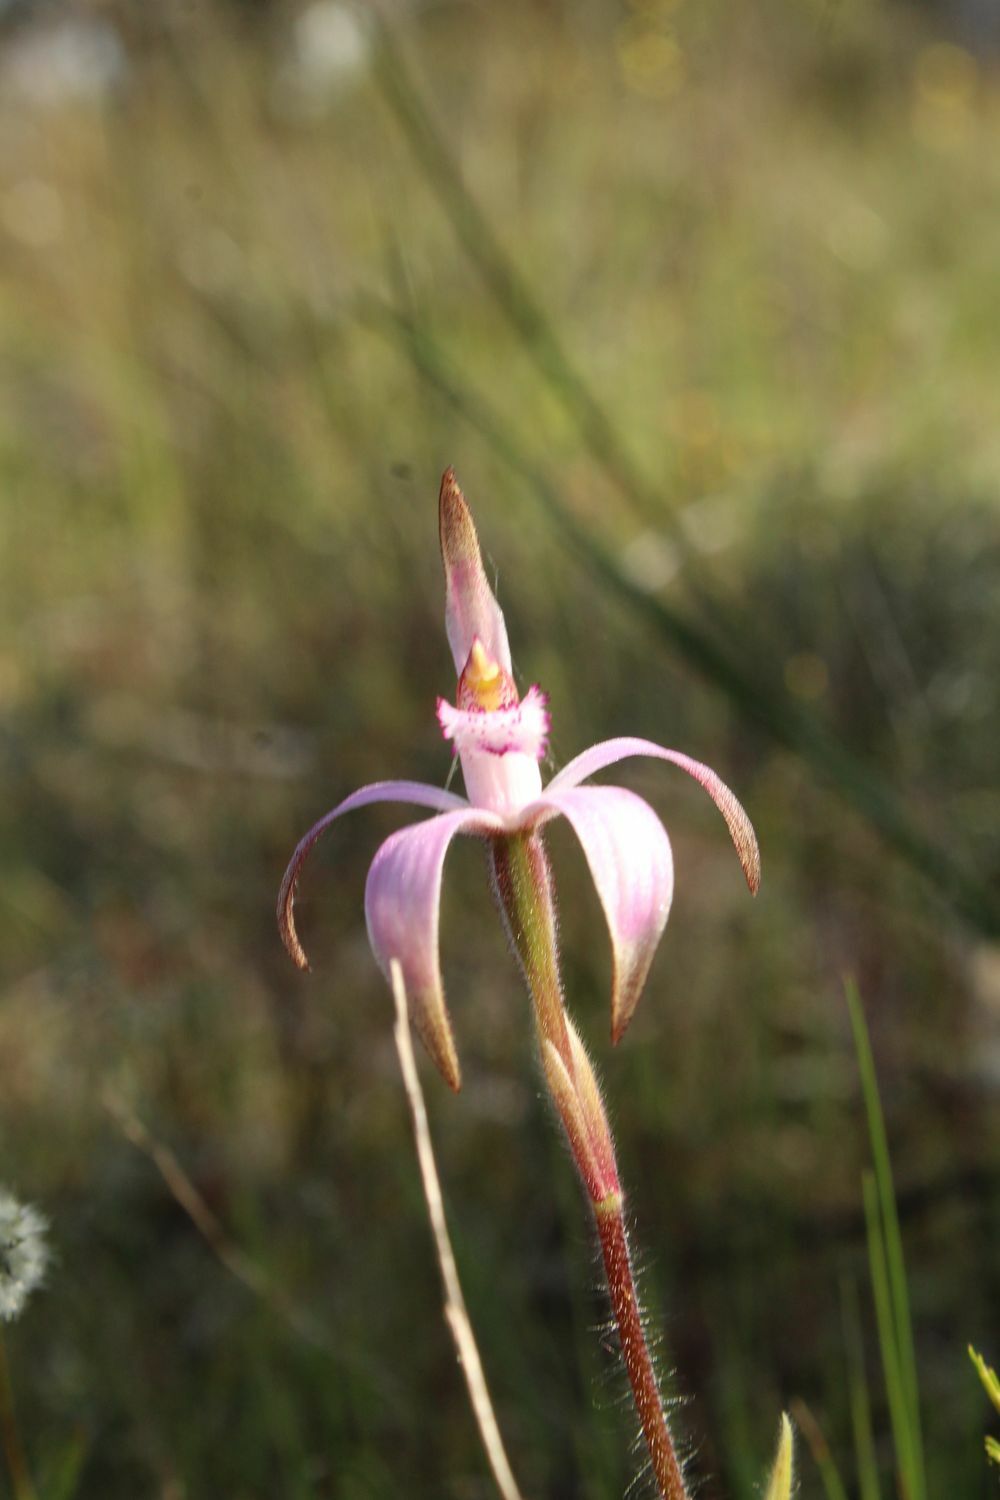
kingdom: Plantae
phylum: Tracheophyta
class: Liliopsida
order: Asparagales
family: Orchidaceae
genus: Caladenia
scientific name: Caladenia hirta
